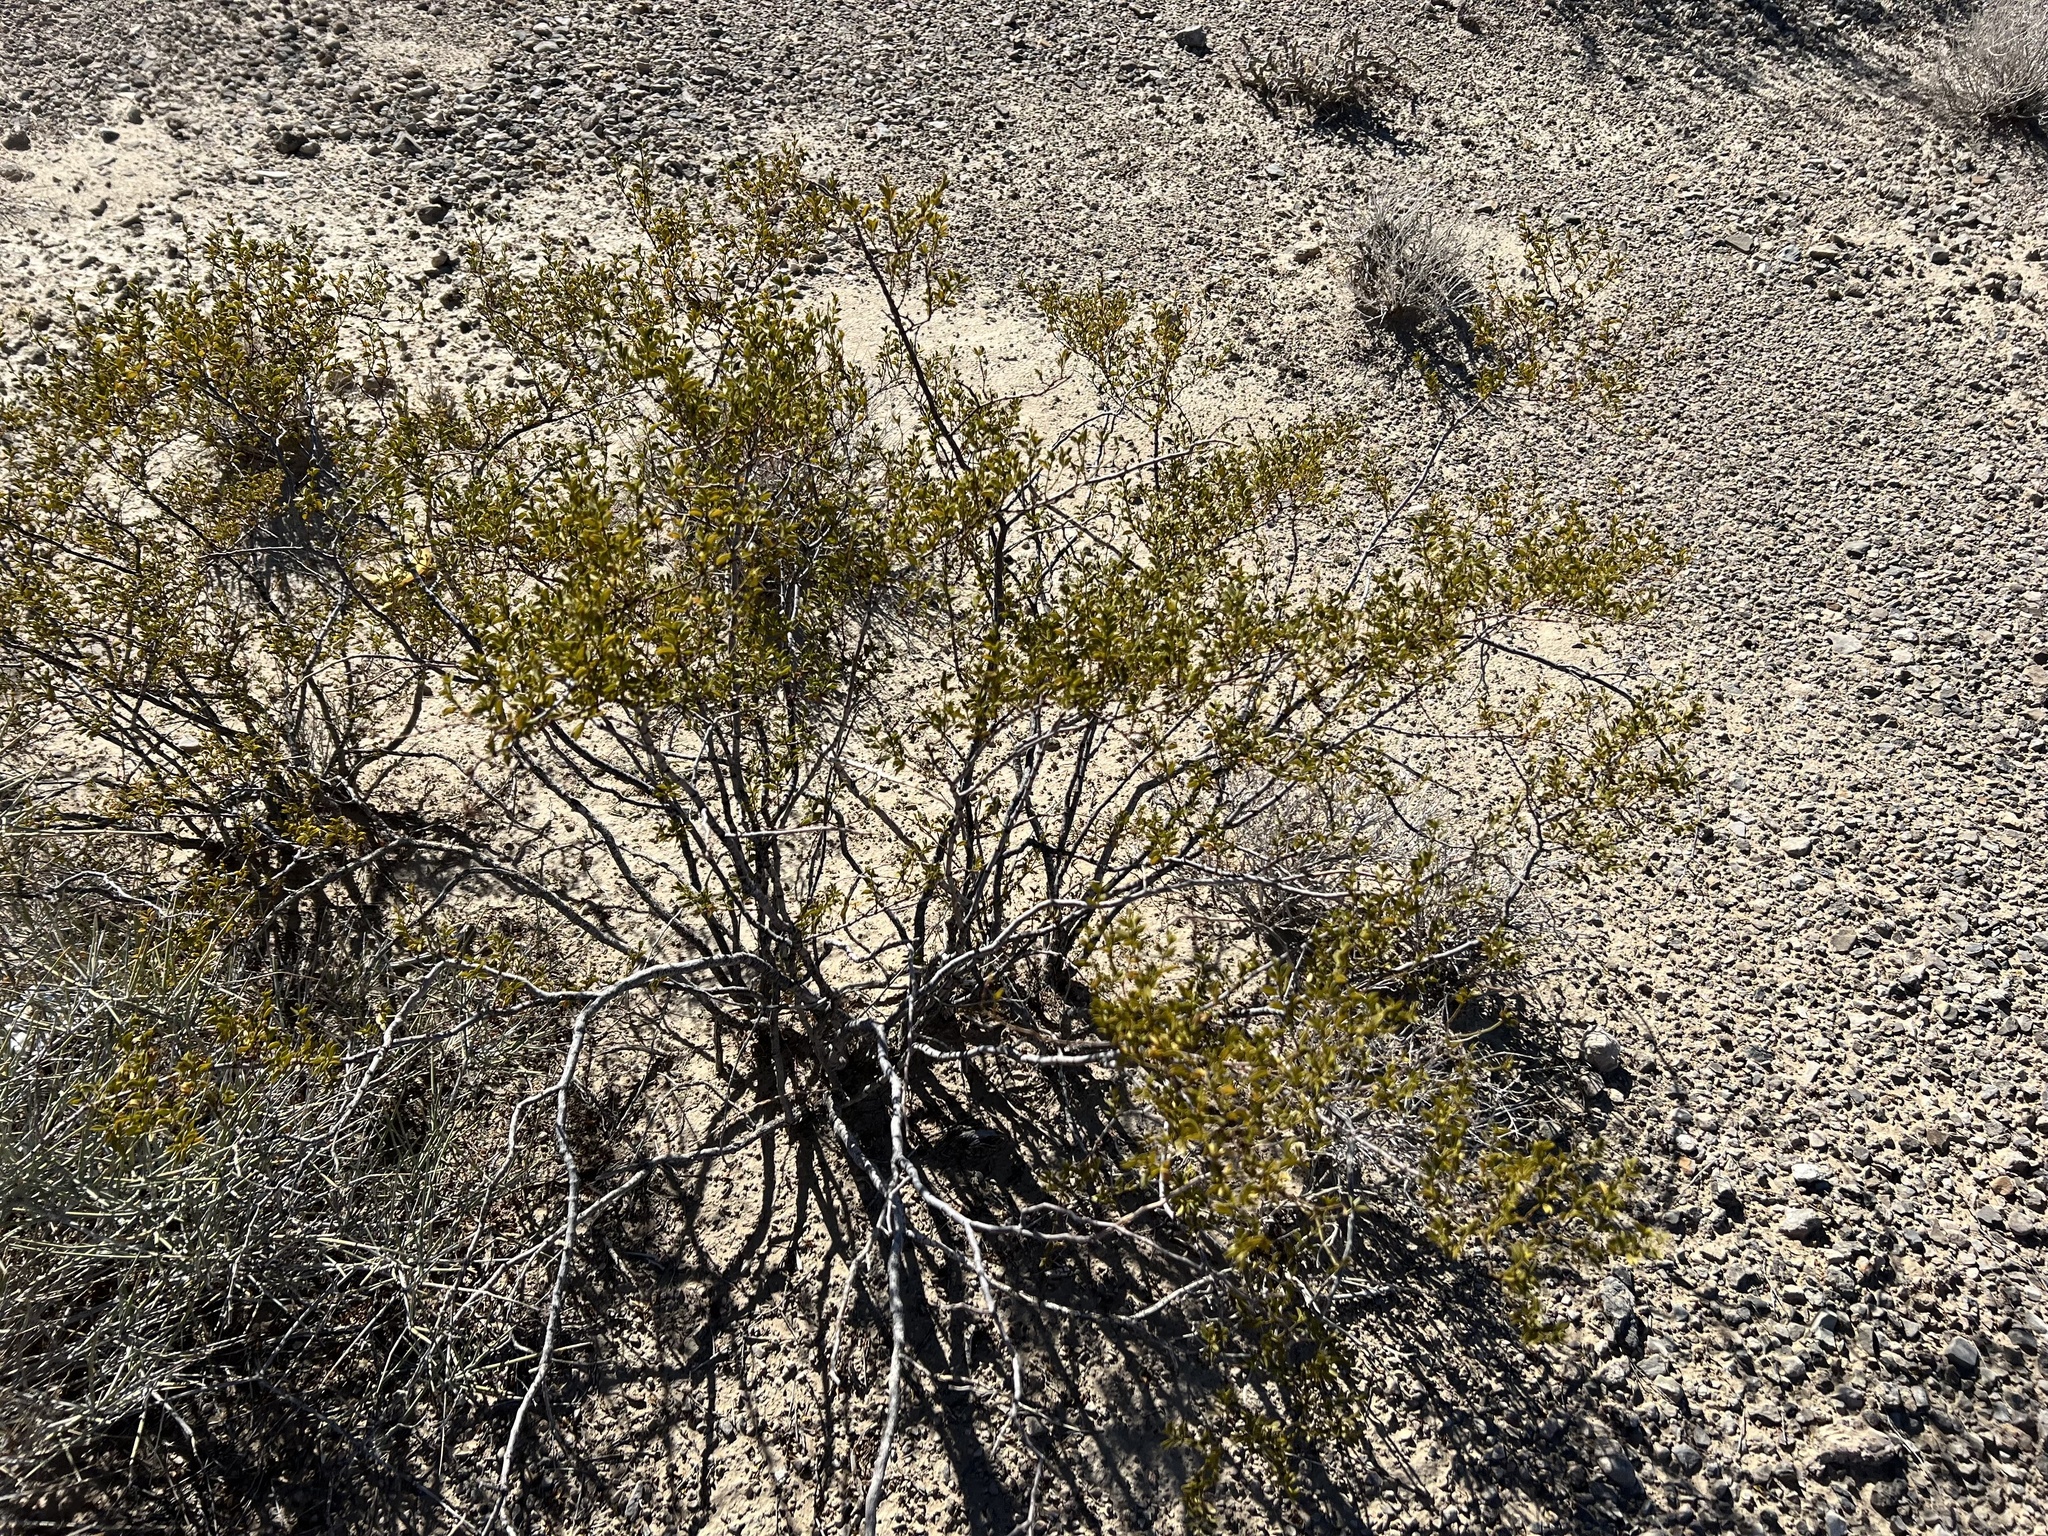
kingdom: Plantae
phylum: Tracheophyta
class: Magnoliopsida
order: Zygophyllales
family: Zygophyllaceae
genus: Larrea
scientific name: Larrea tridentata
